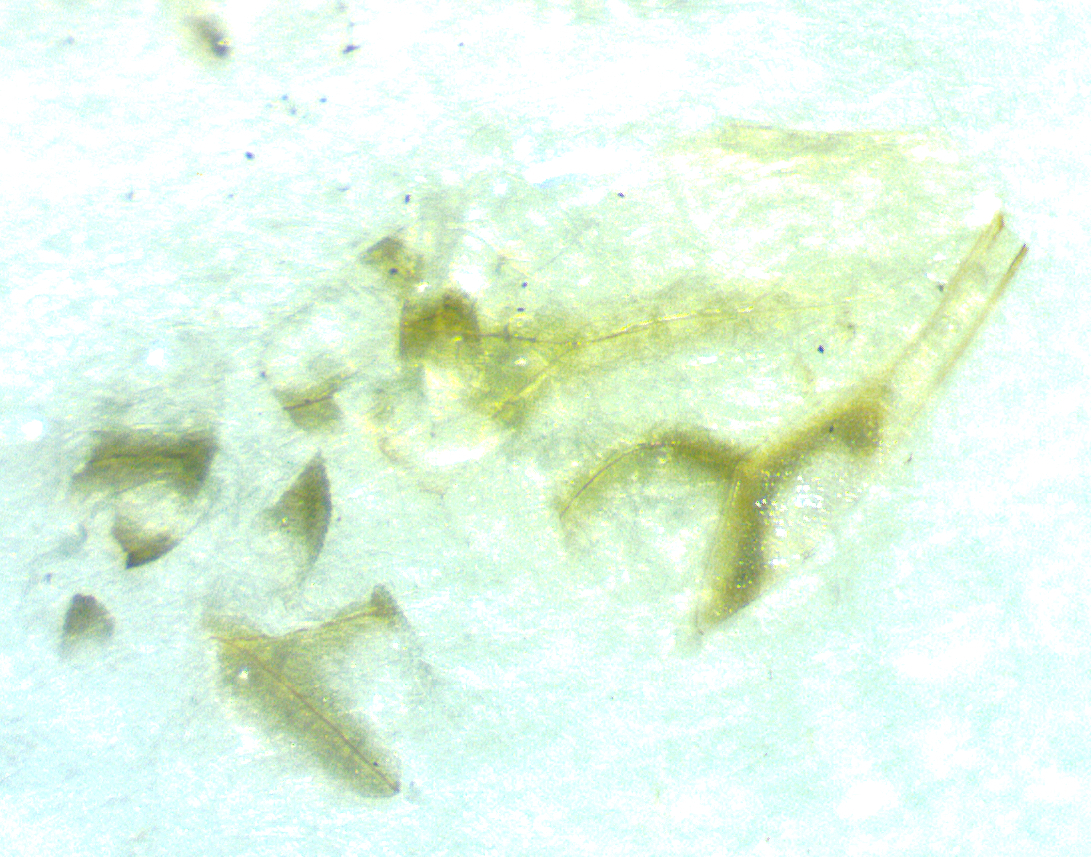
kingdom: Animalia
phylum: Arthropoda
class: Insecta
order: Hemiptera
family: Aphididae
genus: Drepanaphis
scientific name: Drepanaphis acerifoliae
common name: Painted maple aphid
